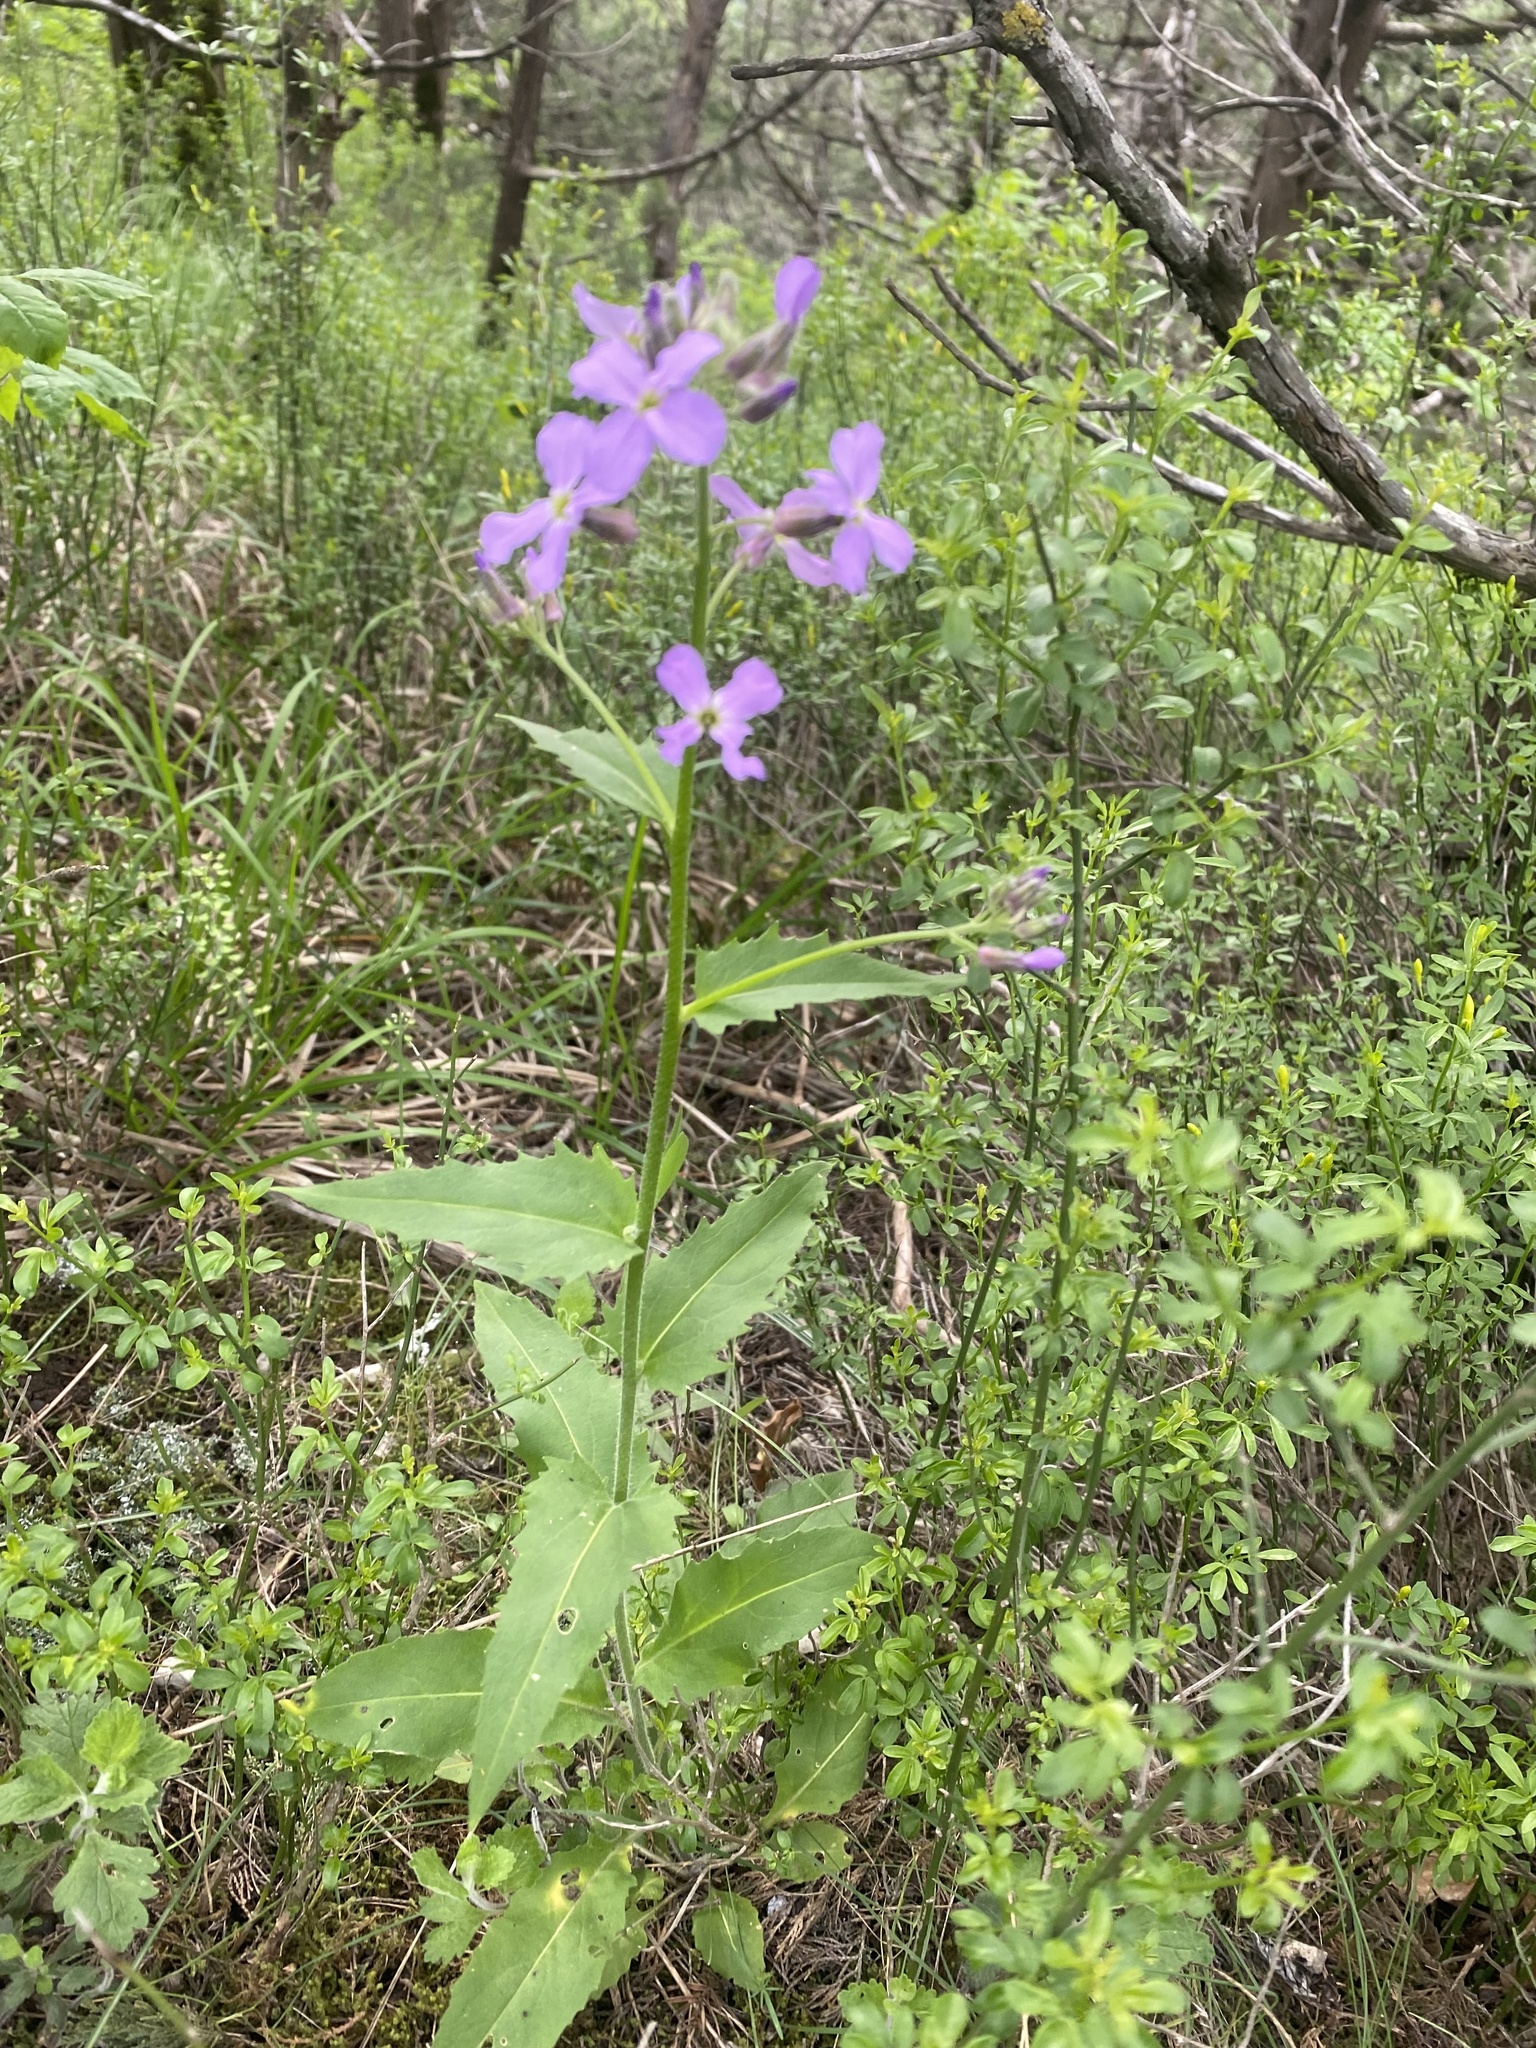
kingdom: Plantae
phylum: Tracheophyta
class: Magnoliopsida
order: Brassicales
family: Brassicaceae
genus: Hesperis
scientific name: Hesperis matronalis
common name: Dame's-violet
